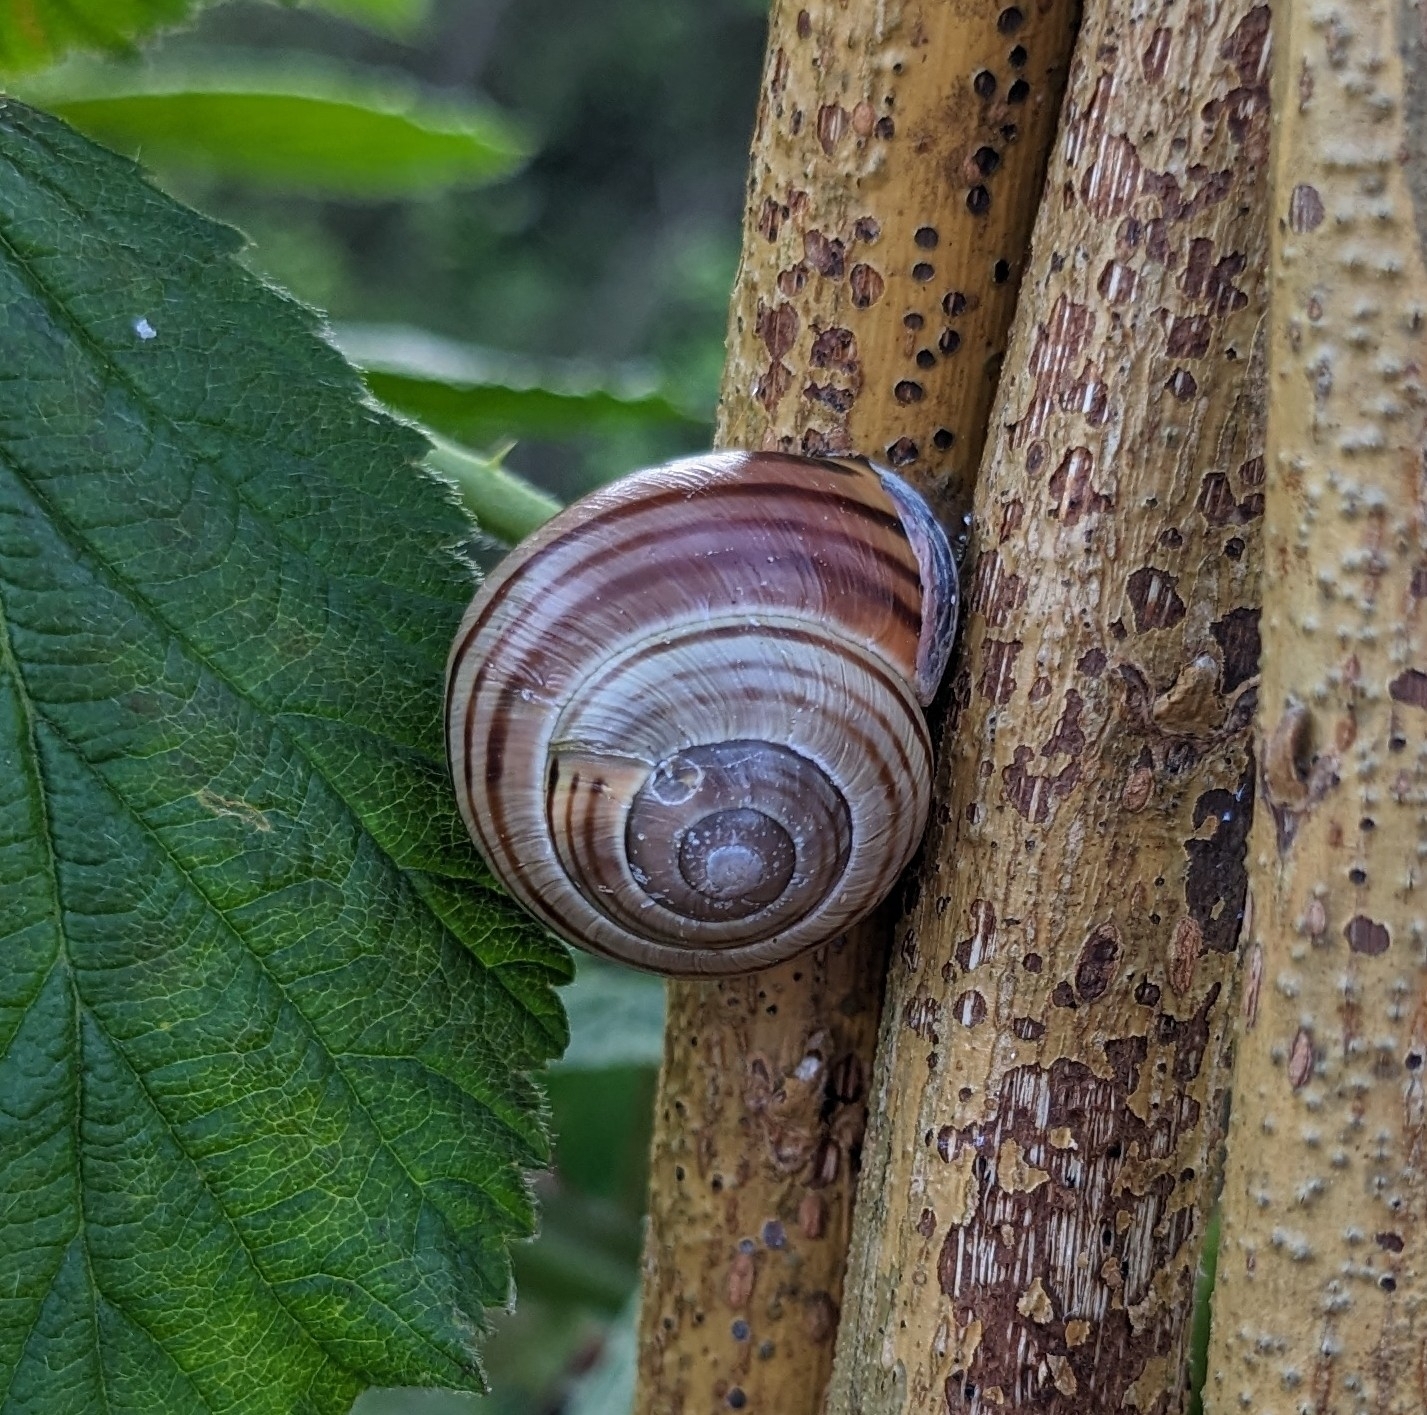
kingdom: Animalia
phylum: Mollusca
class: Gastropoda
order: Stylommatophora
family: Helicidae
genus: Cepaea
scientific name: Cepaea nemoralis
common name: Grovesnail
